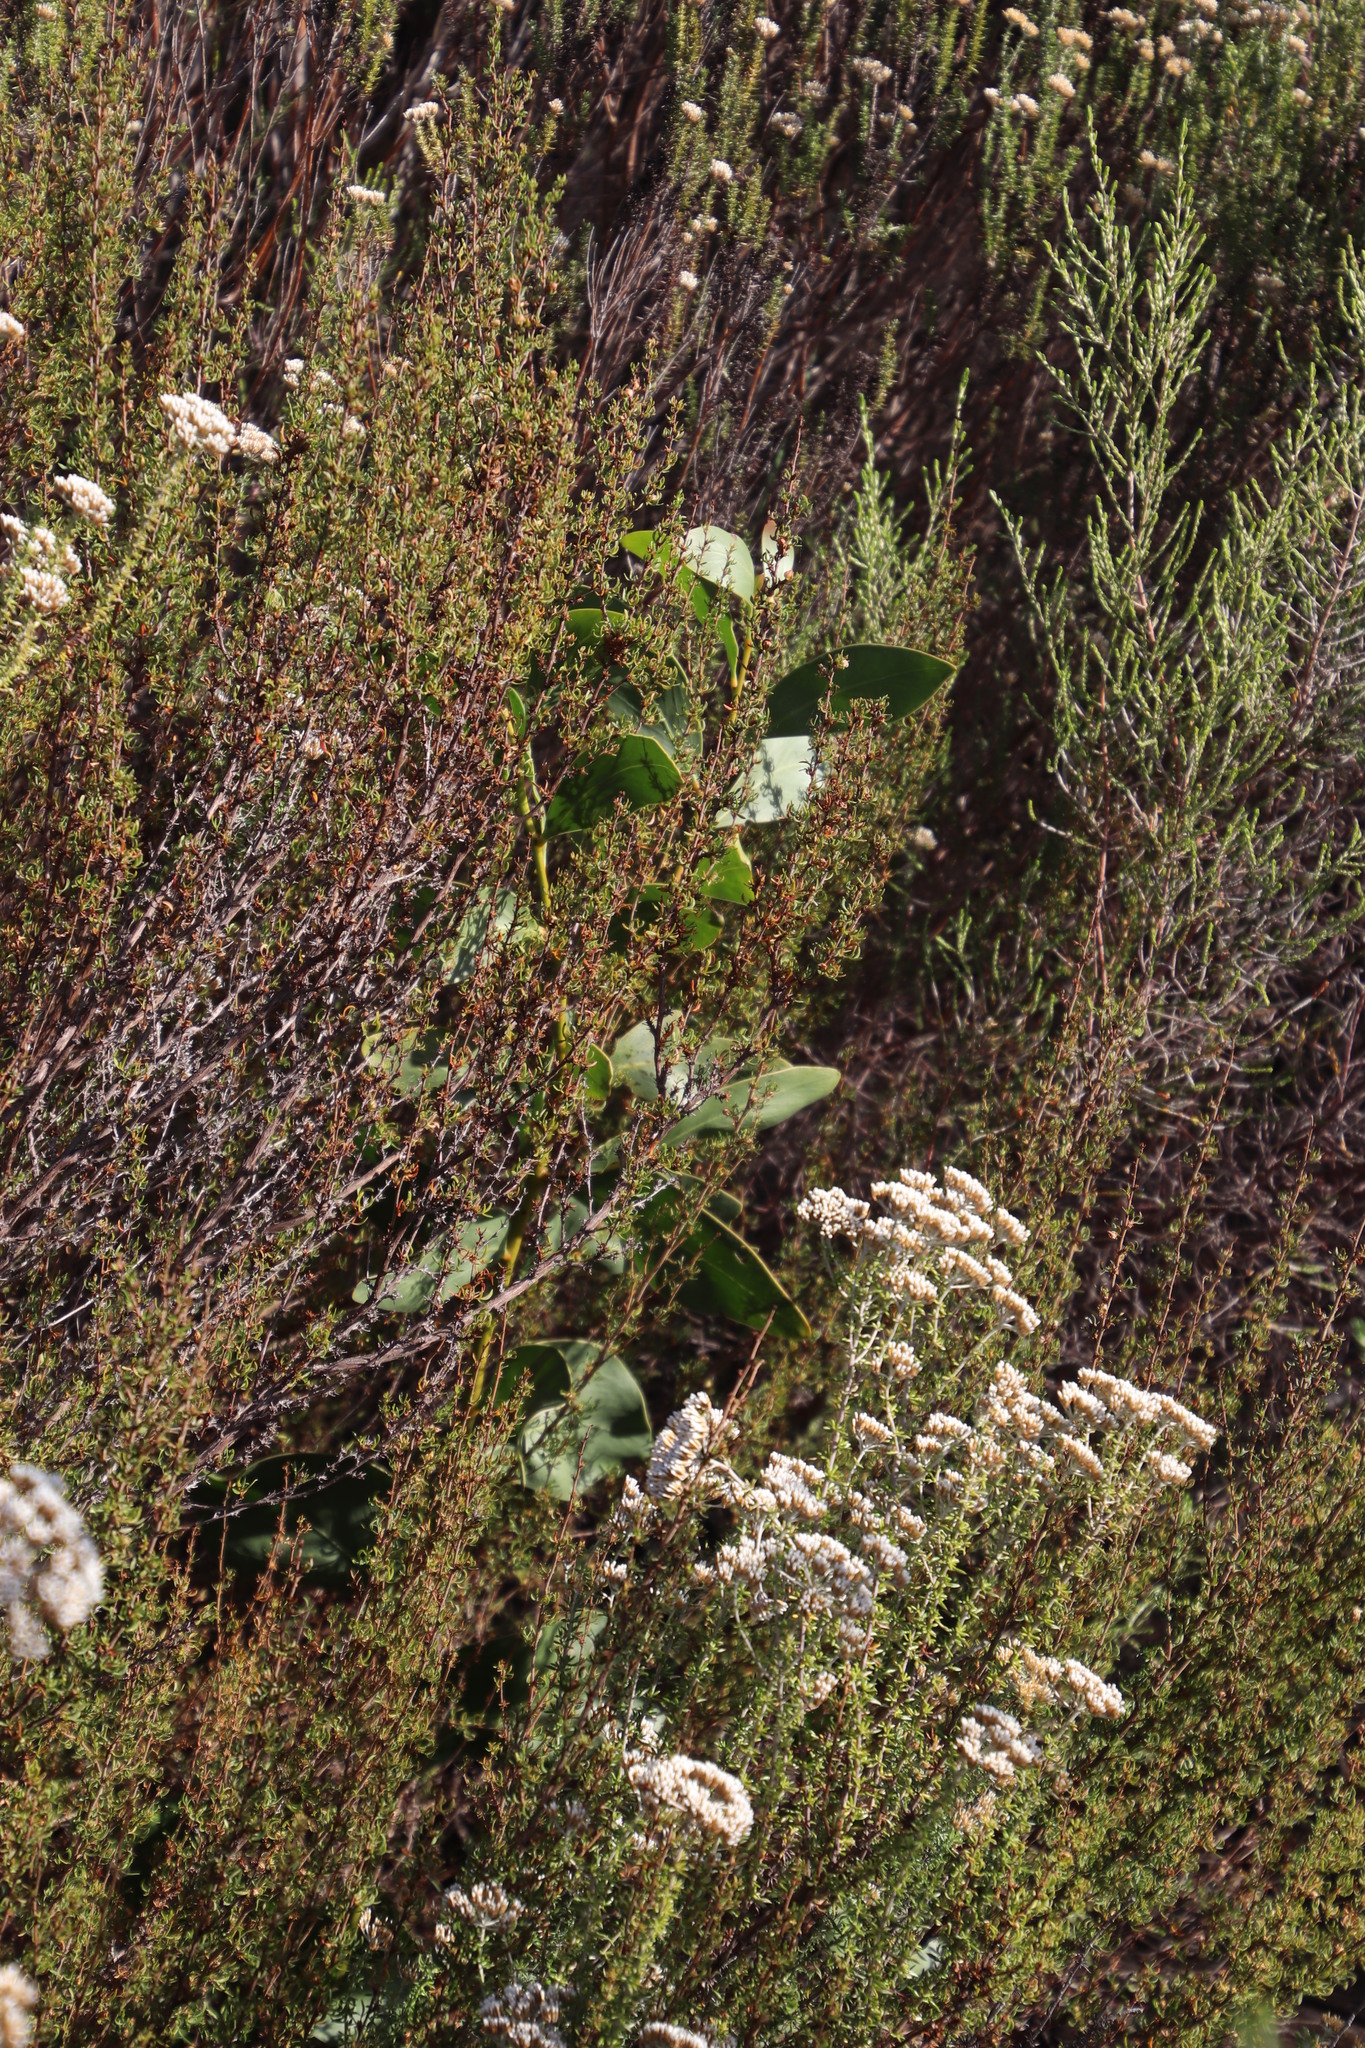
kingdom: Plantae
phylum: Tracheophyta
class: Magnoliopsida
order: Fabales
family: Fabaceae
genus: Acacia
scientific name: Acacia pycnantha
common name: Golden wattle
